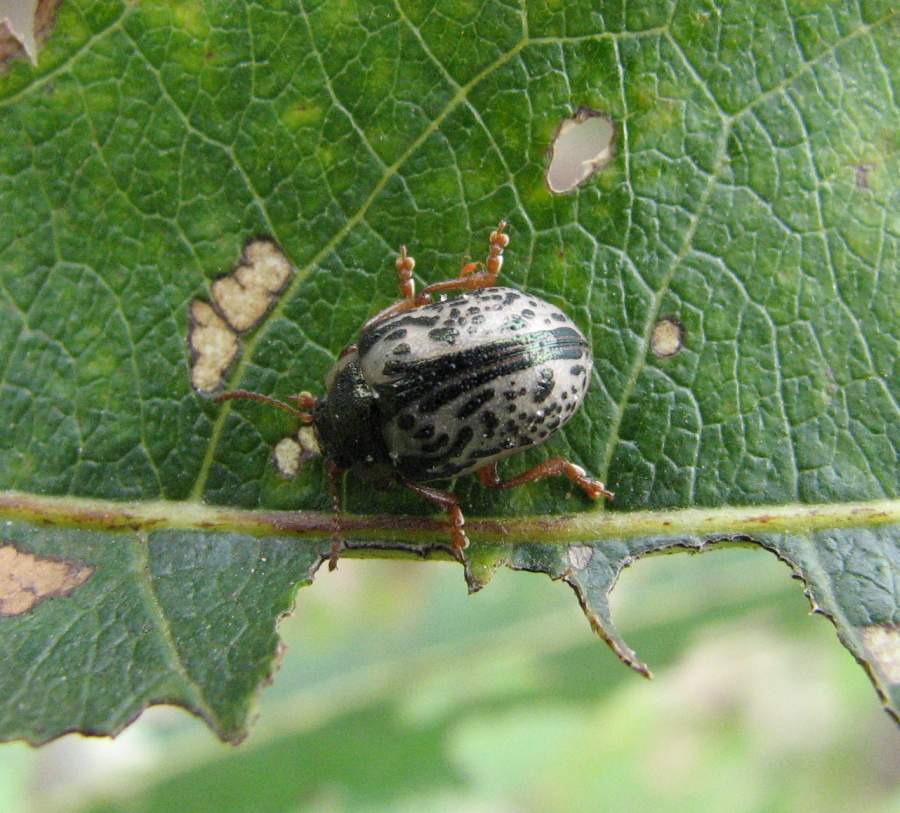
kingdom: Animalia
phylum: Arthropoda
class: Insecta
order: Coleoptera
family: Chrysomelidae
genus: Calligrapha
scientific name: Calligrapha multipunctata
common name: Common willow calligrapher beetle
